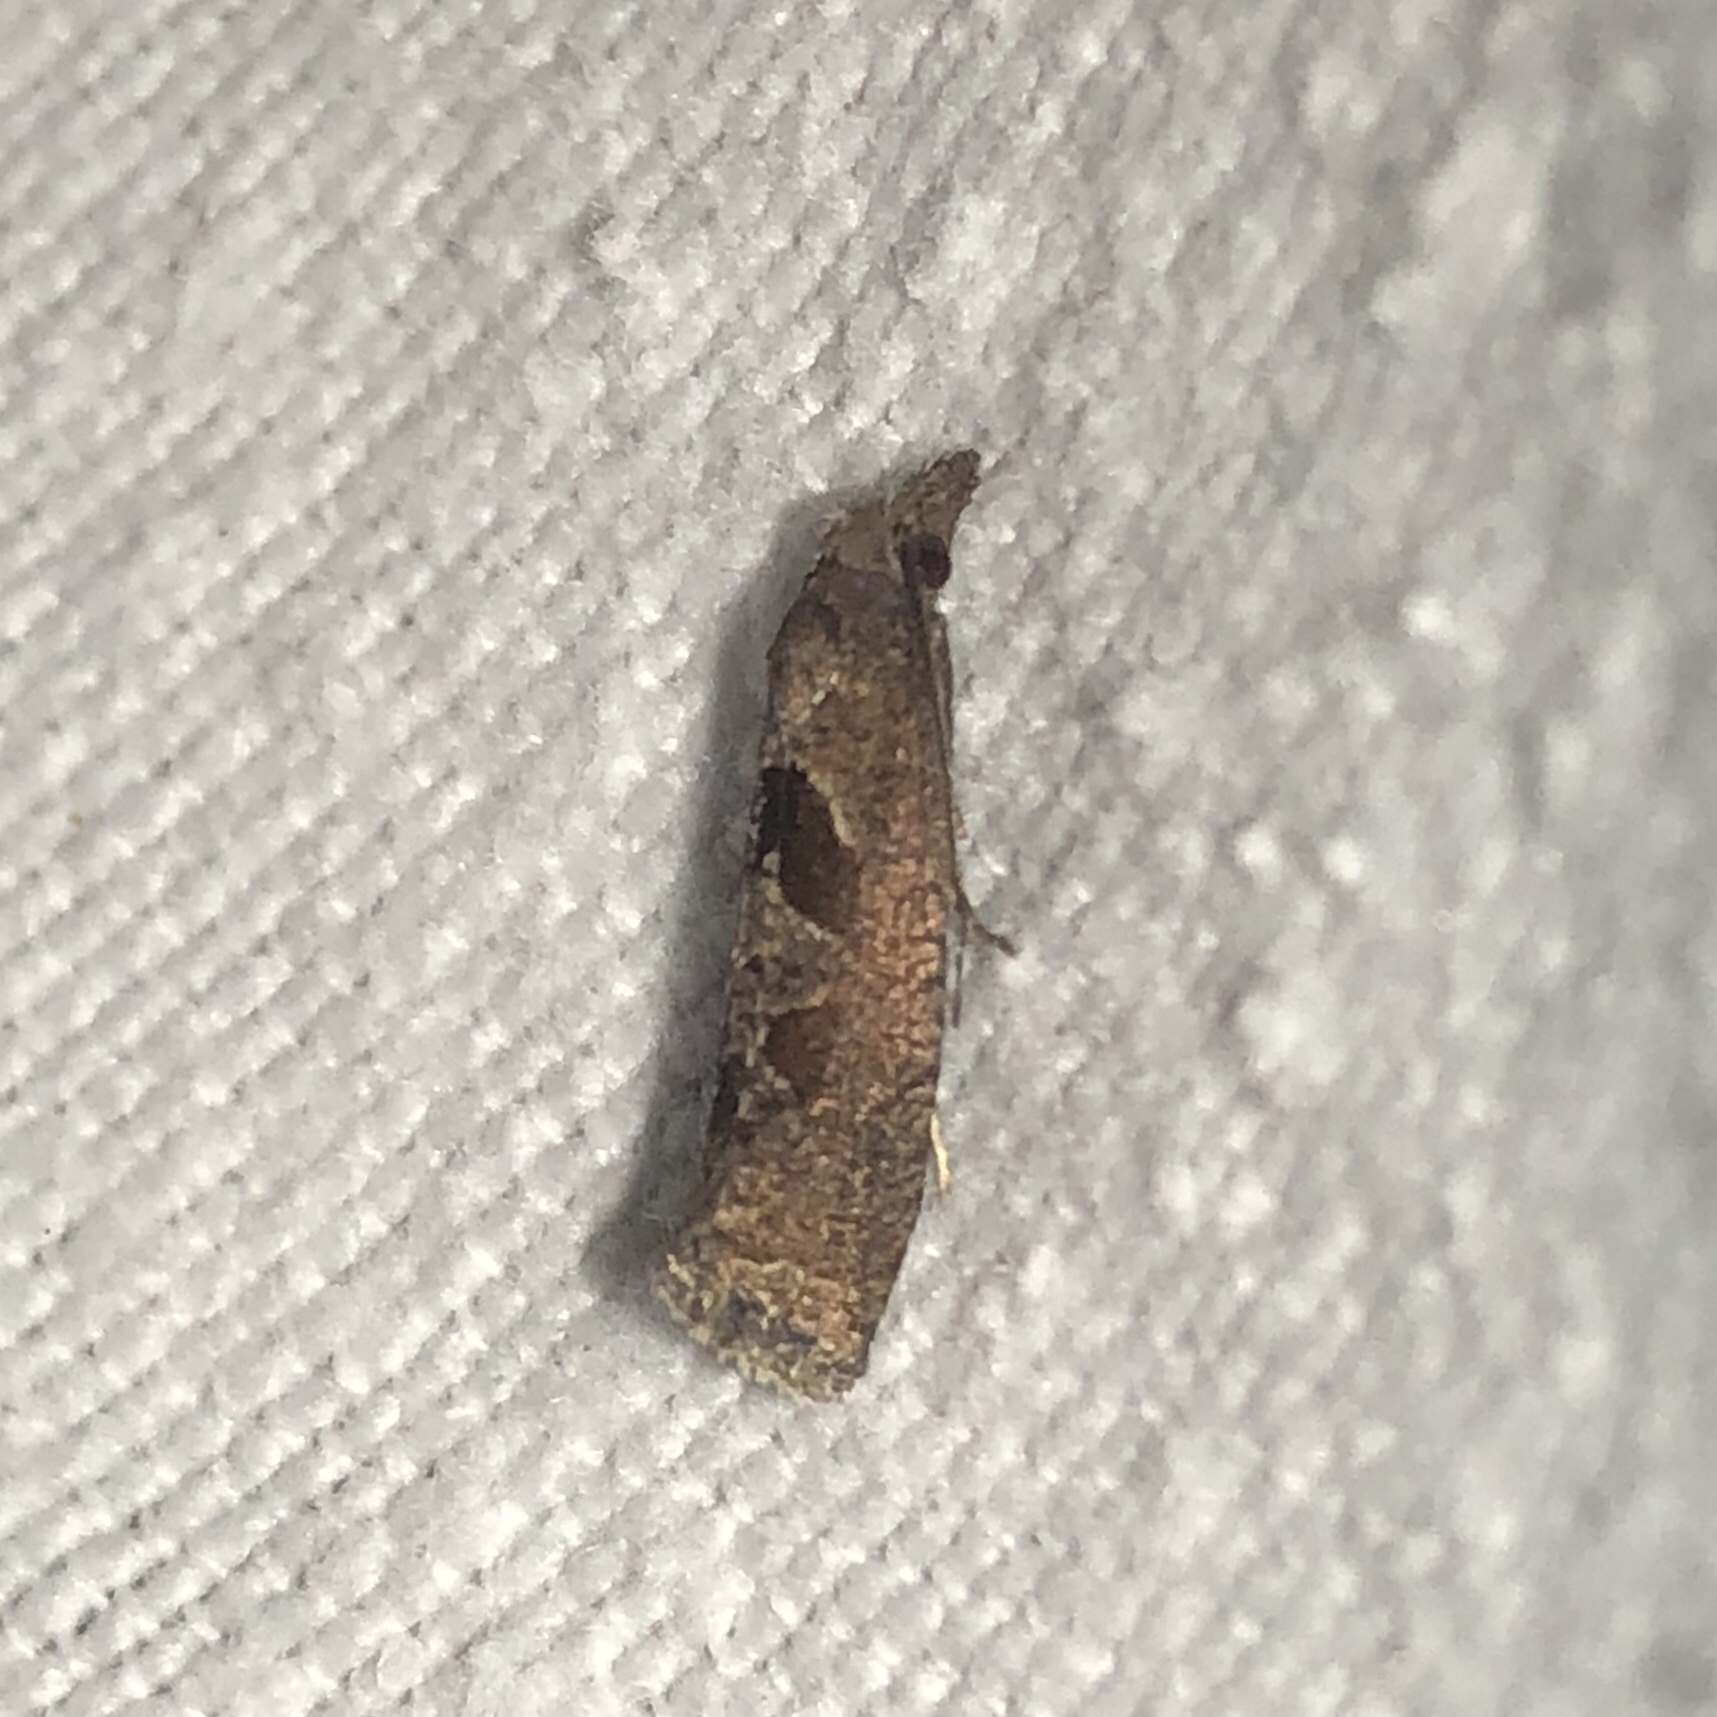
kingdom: Animalia
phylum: Arthropoda
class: Insecta
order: Lepidoptera
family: Tortricidae
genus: Pelochrista
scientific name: Pelochrista similiana
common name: Similar eucosma
